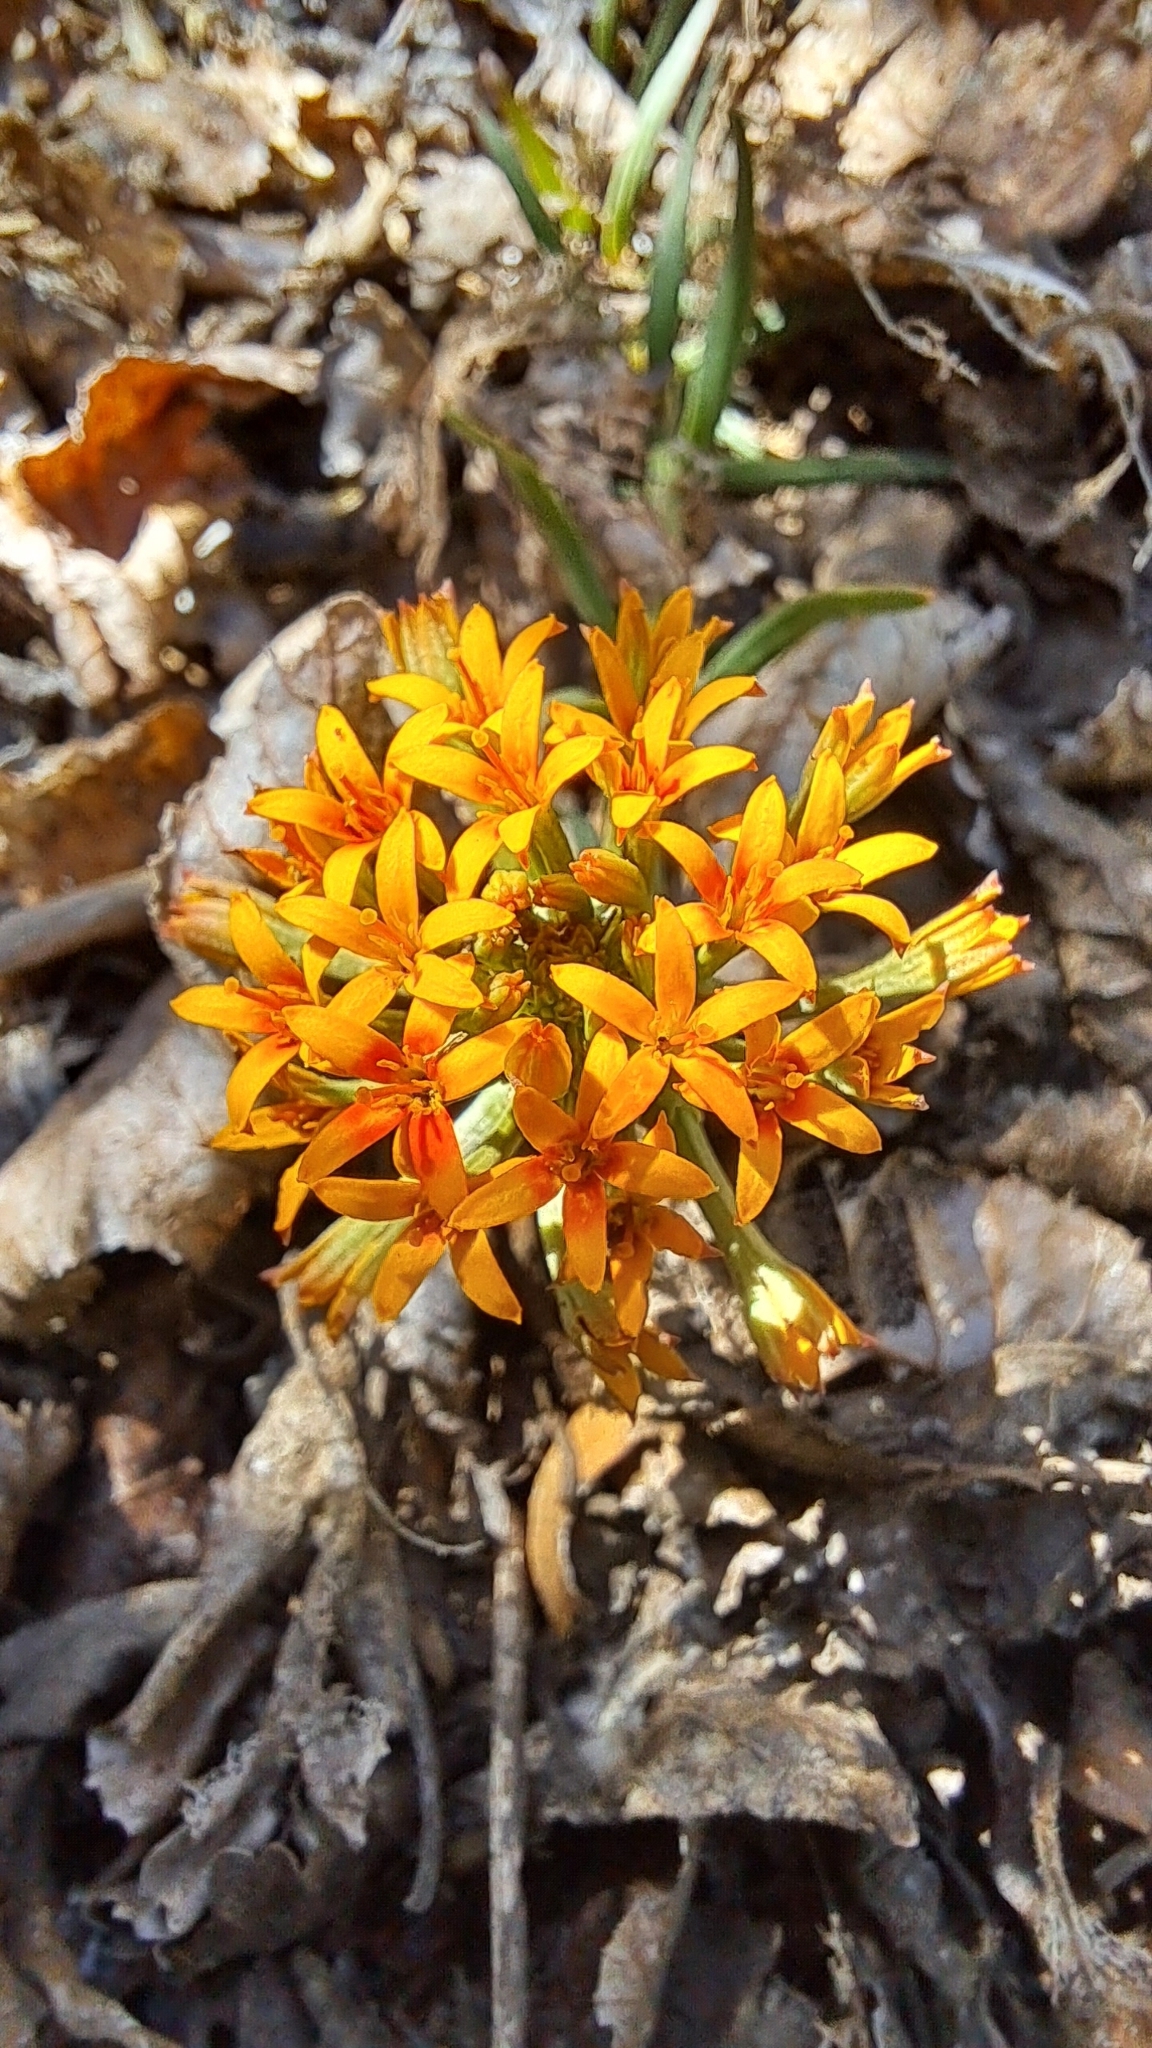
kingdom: Plantae
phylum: Tracheophyta
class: Magnoliopsida
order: Santalales
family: Schoepfiaceae
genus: Quinchamalium
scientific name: Quinchamalium chilense
